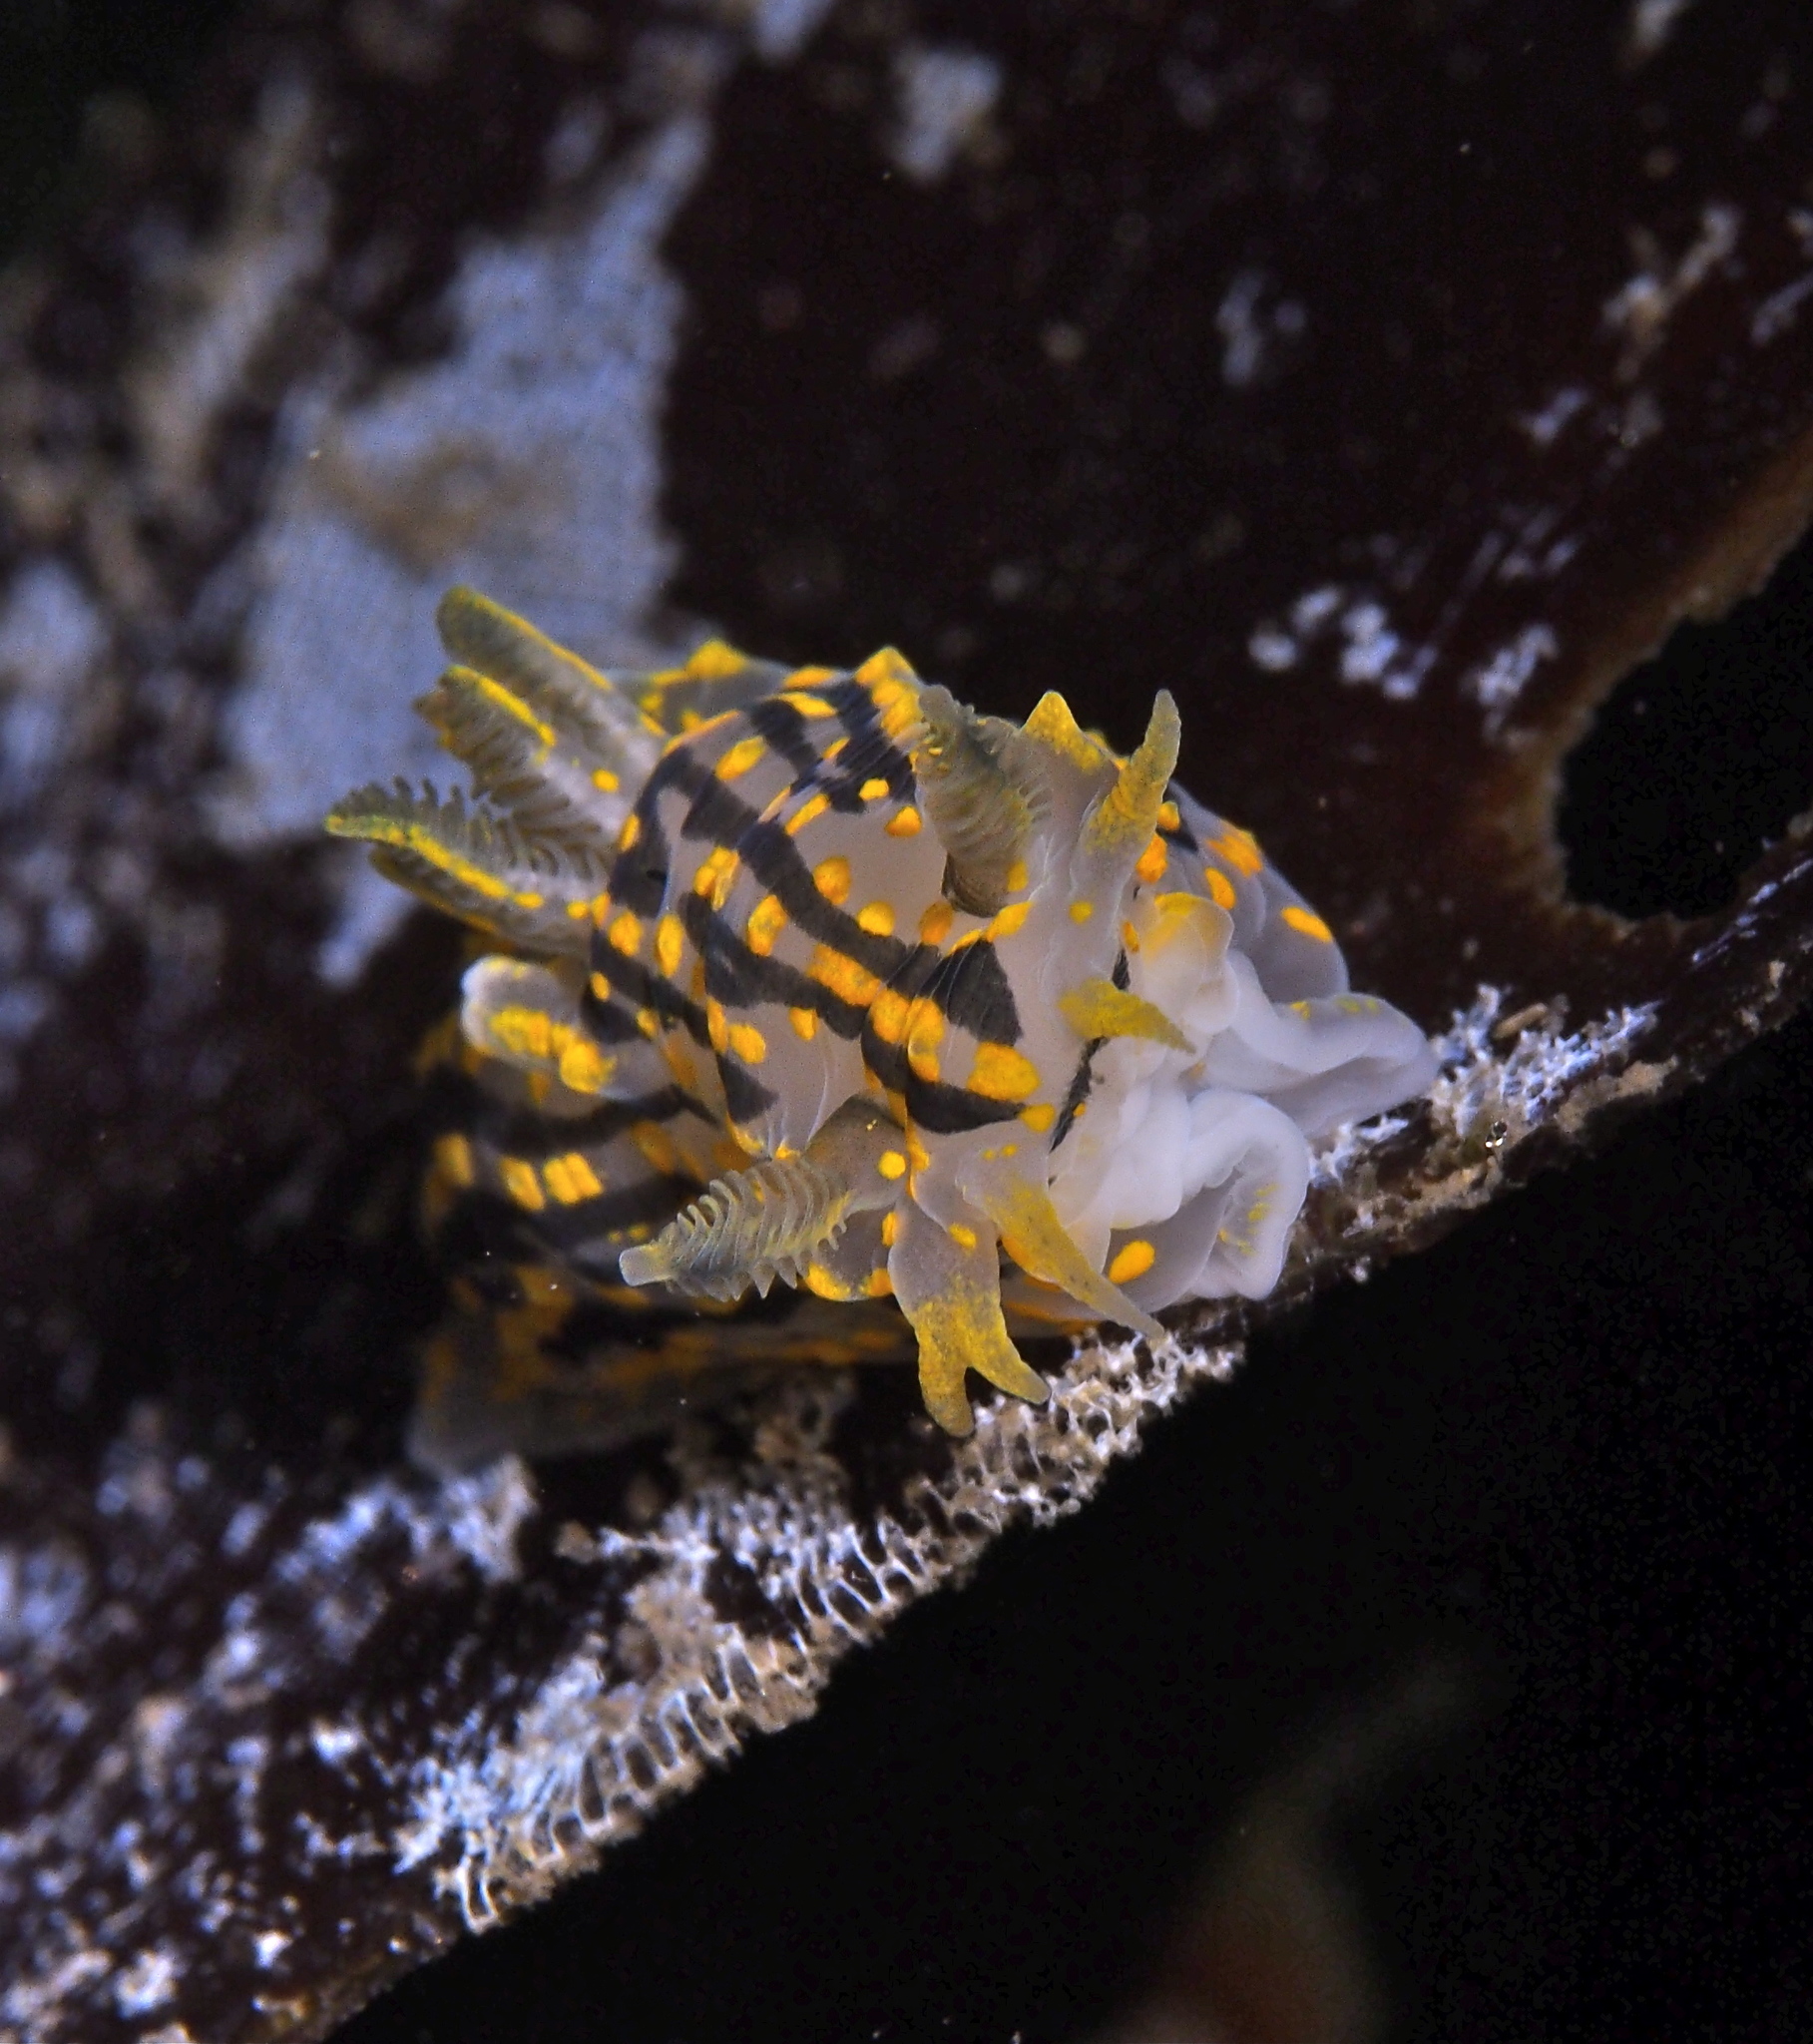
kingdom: Animalia
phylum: Mollusca
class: Gastropoda
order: Nudibranchia
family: Polyceridae
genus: Polycera
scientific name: Polycera quadrilineata
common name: Four-striped polycera
